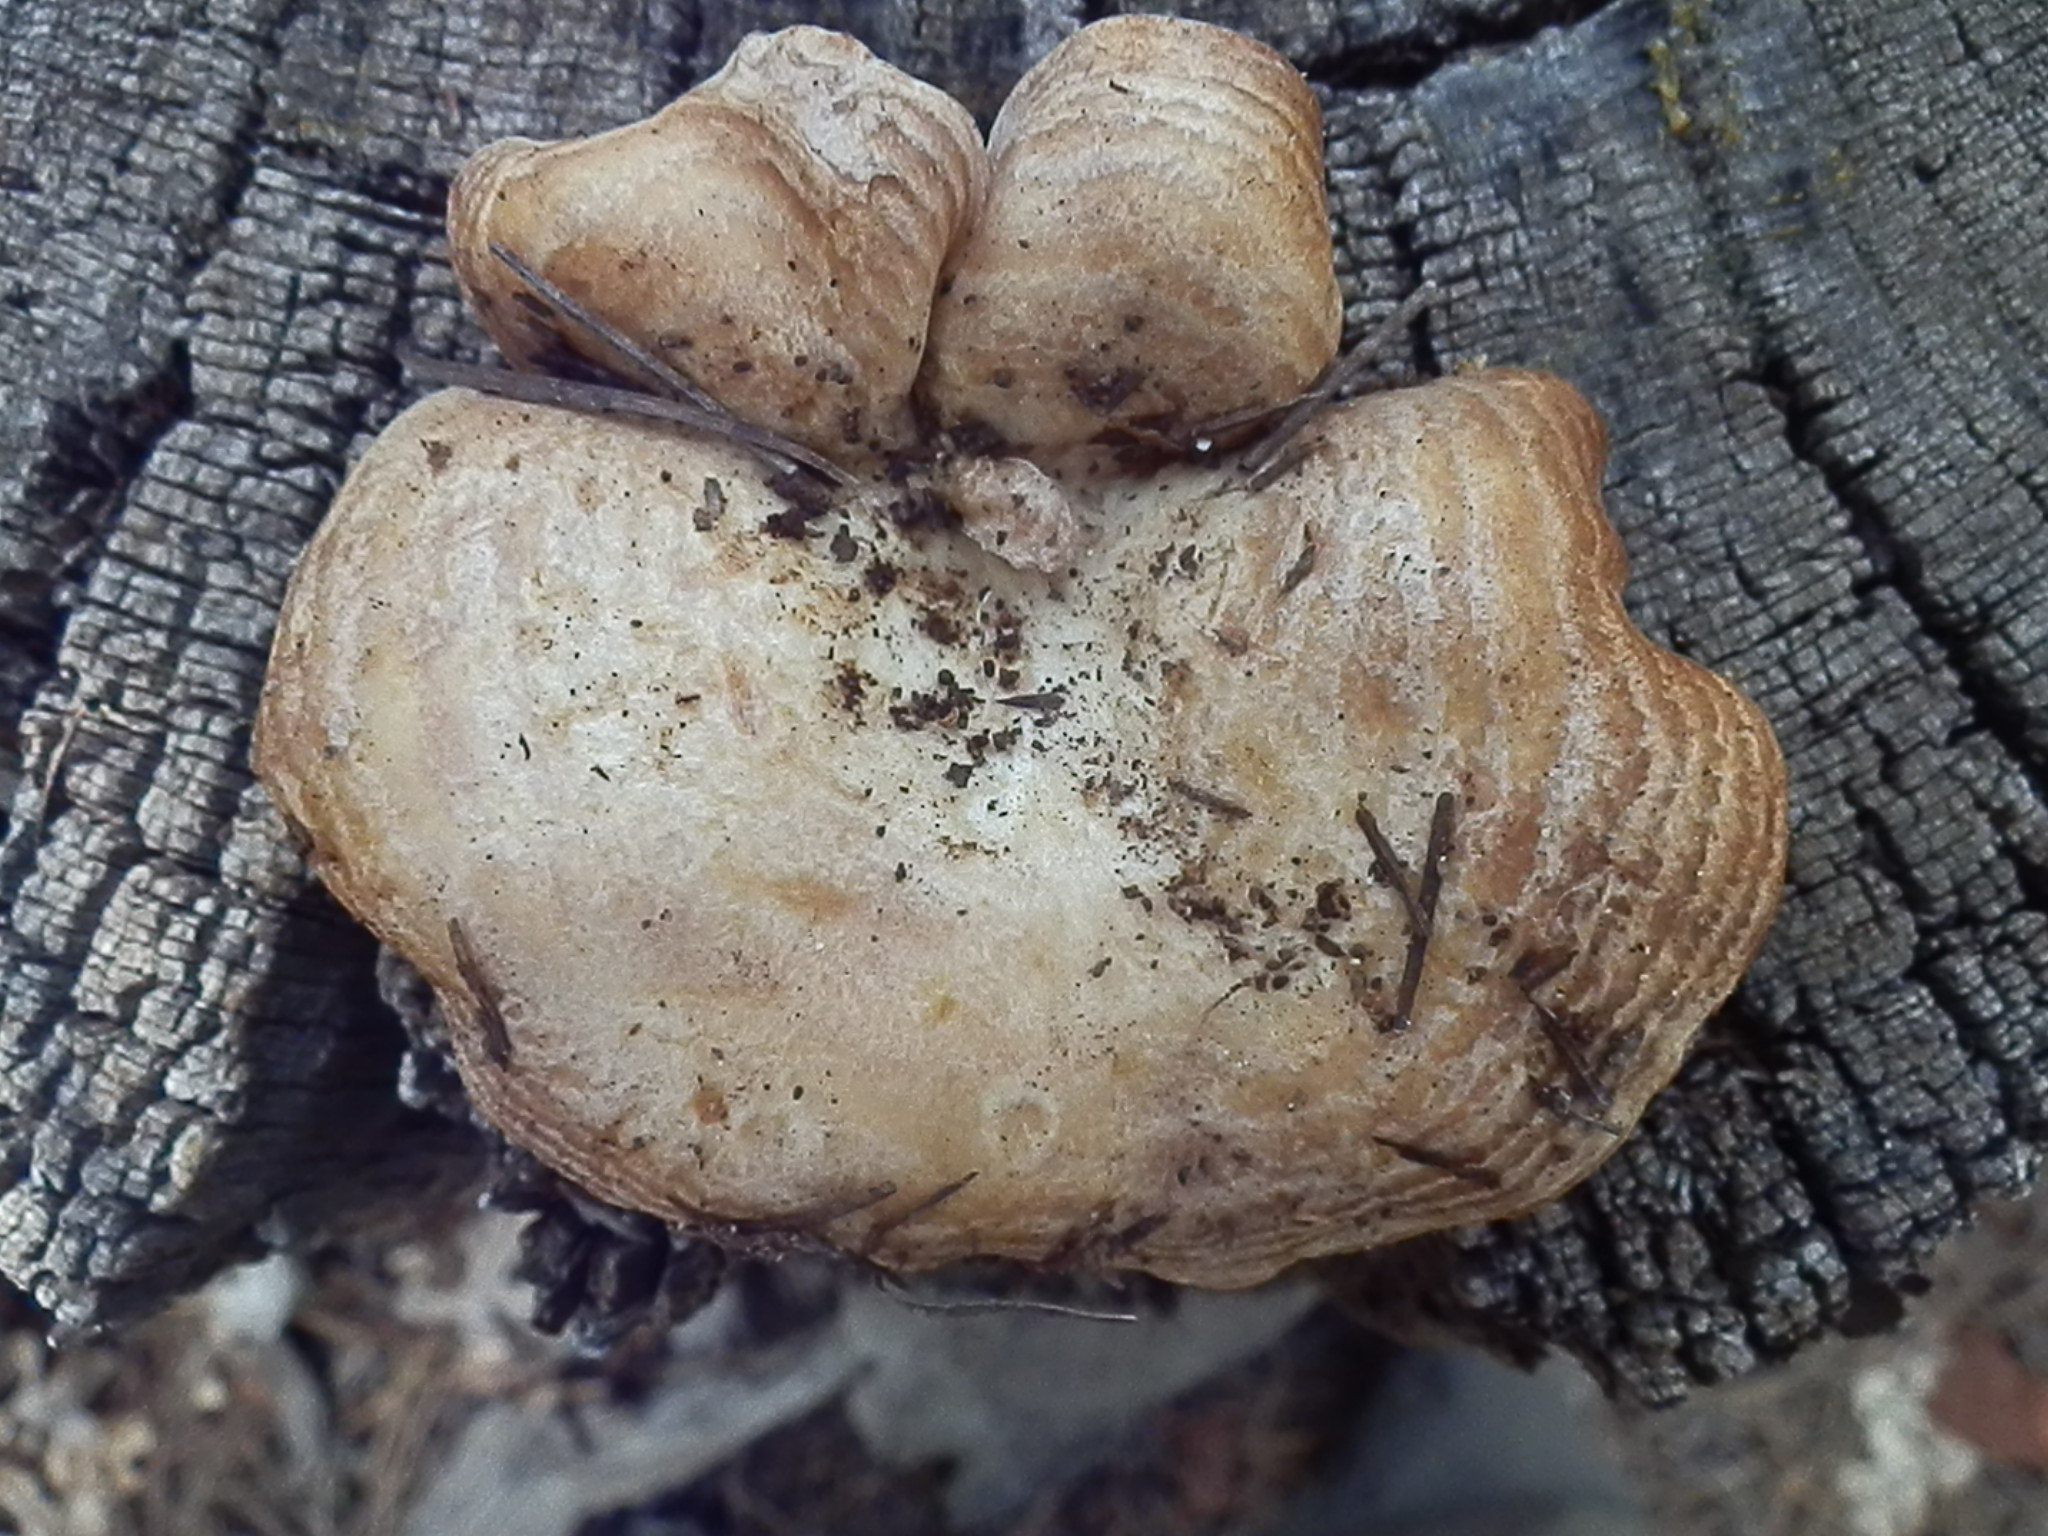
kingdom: Fungi
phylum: Basidiomycota
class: Agaricomycetes
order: Russulales
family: Russulaceae
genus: Lactarius
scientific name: Lactarius uvidus
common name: Shiner milkcap
